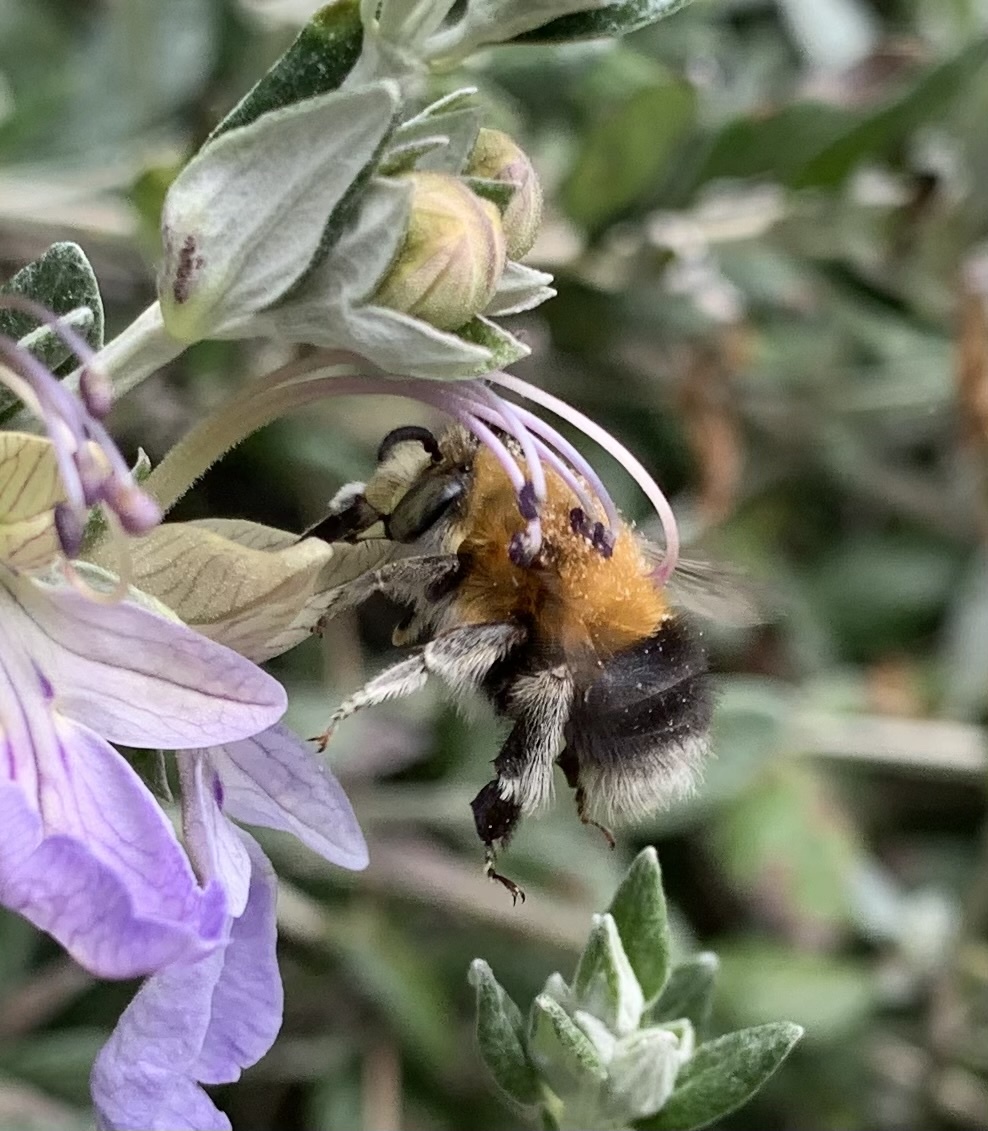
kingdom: Animalia
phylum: Arthropoda
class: Insecta
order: Hymenoptera
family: Apidae
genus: Habropoda
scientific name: Habropoda tarsata
